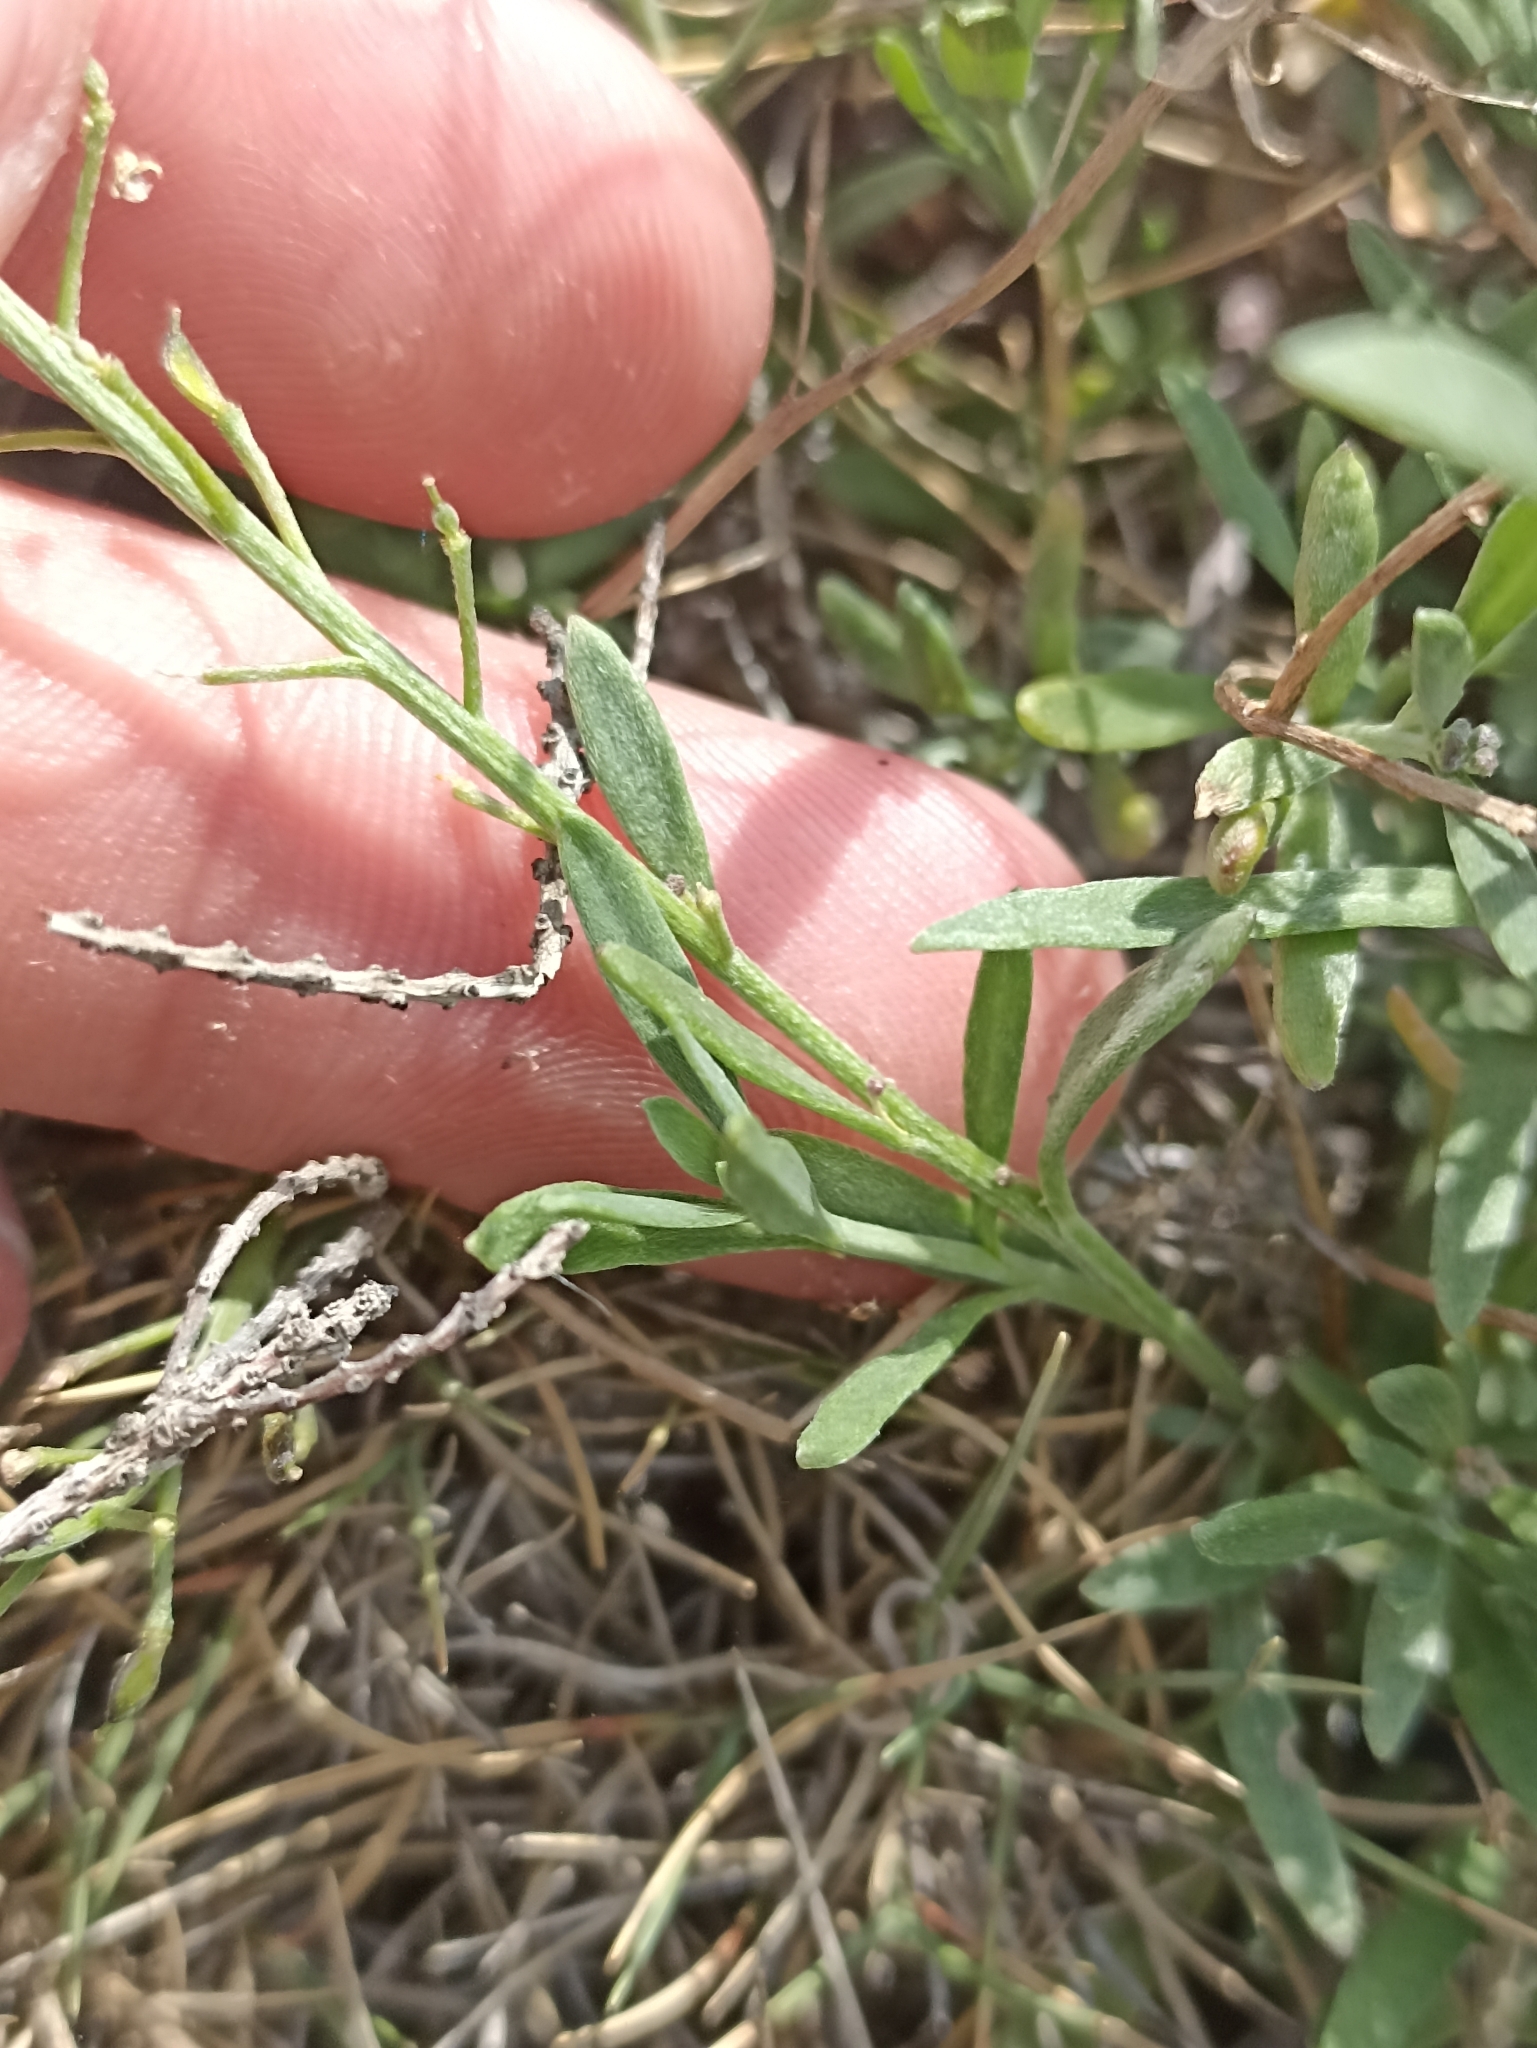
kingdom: Plantae
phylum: Tracheophyta
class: Magnoliopsida
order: Brassicales
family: Brassicaceae
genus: Lobularia
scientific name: Lobularia maritima
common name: Sweet alison
